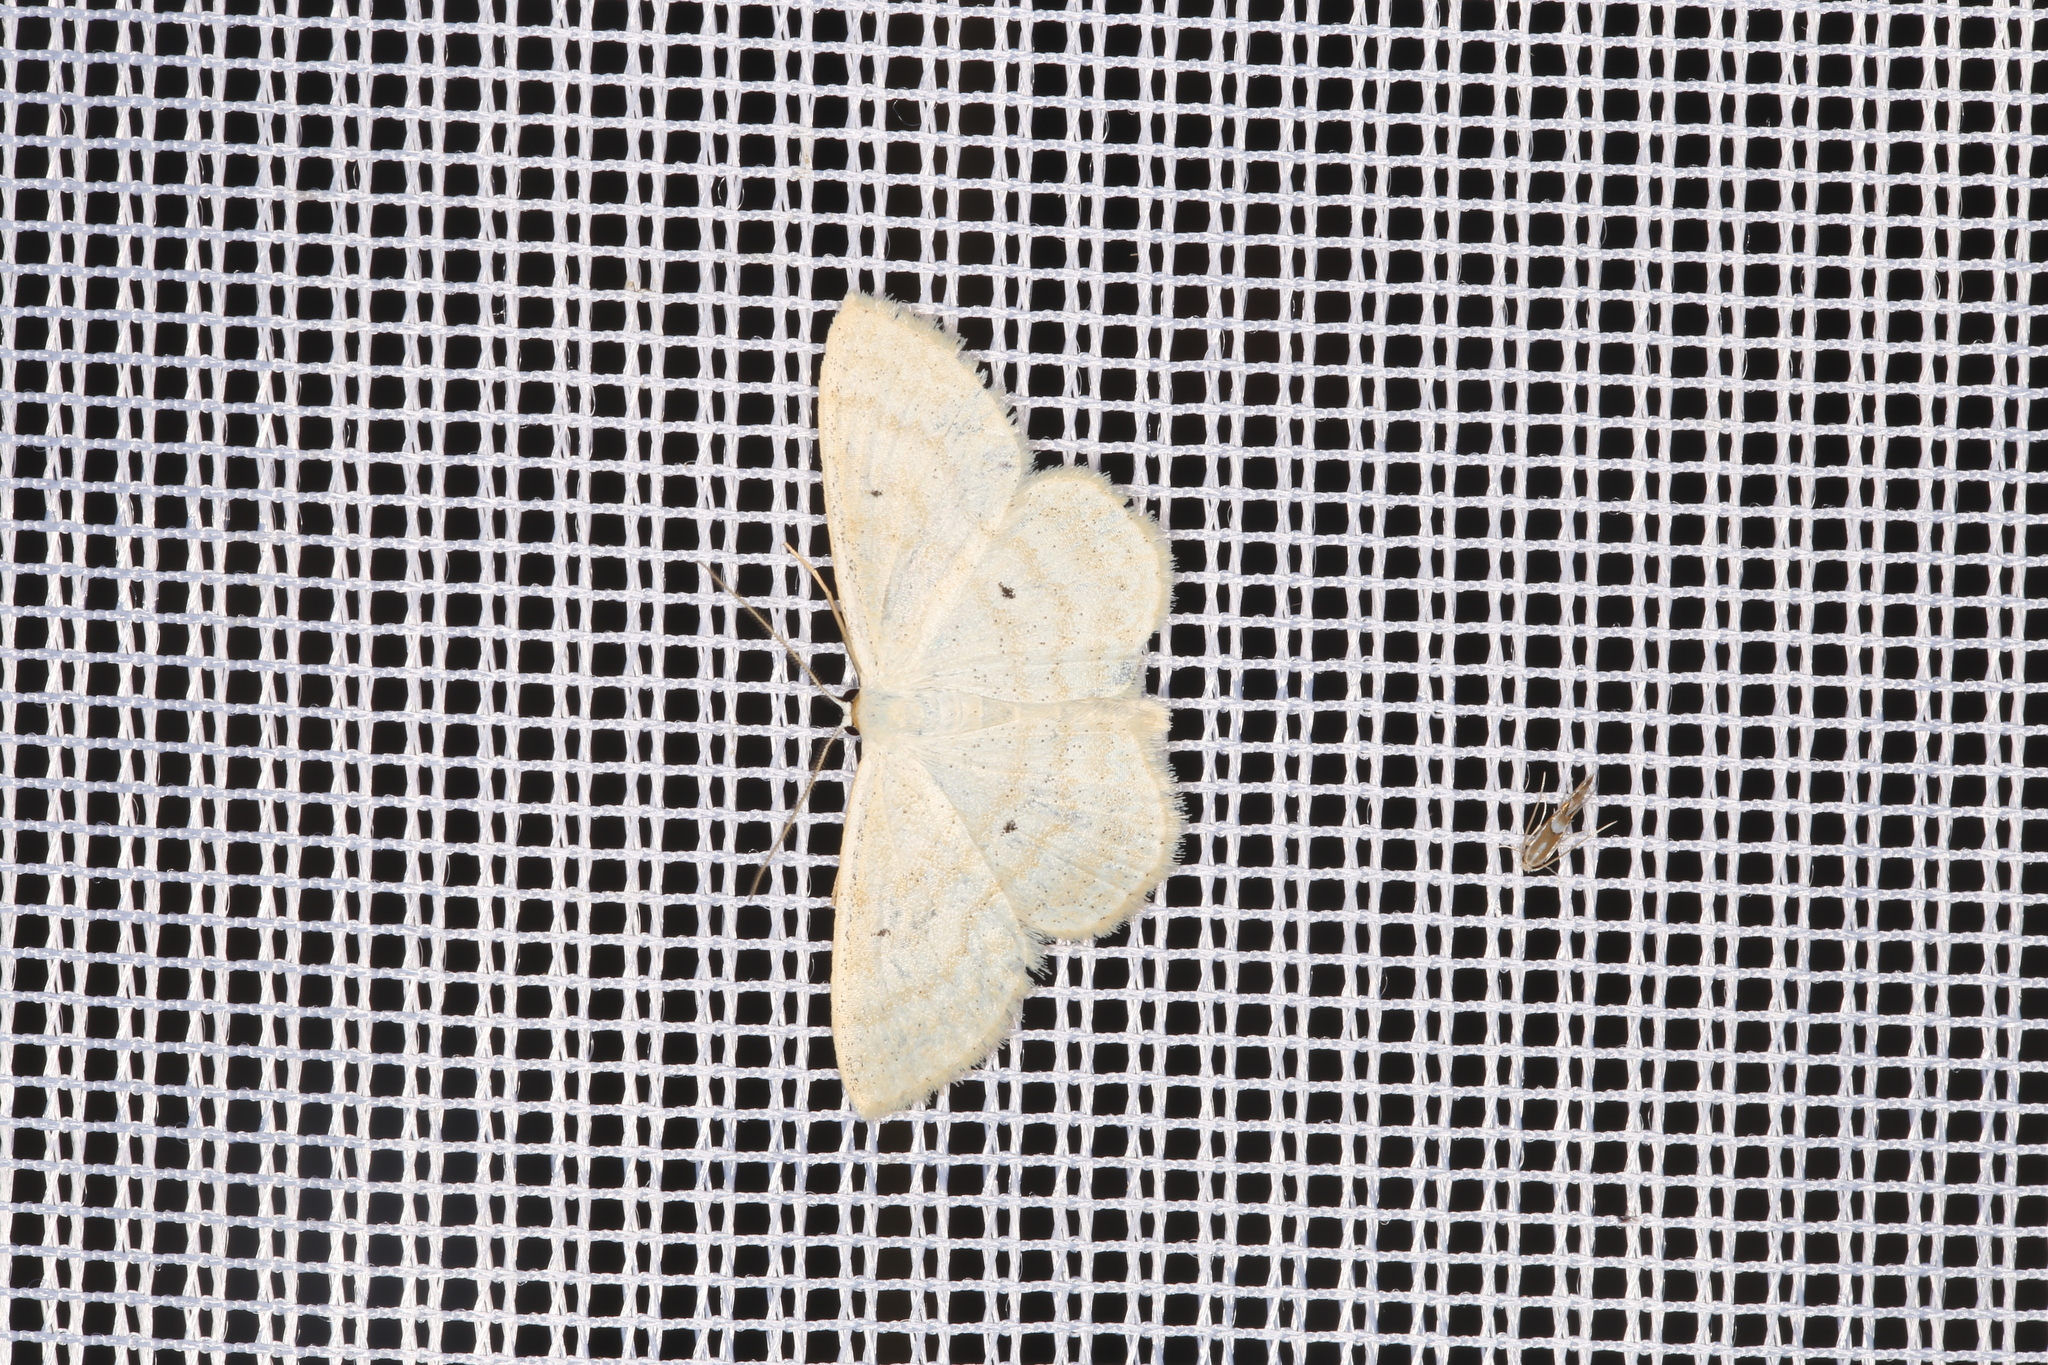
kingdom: Animalia
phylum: Arthropoda
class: Insecta
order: Lepidoptera
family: Geometridae
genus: Scopula
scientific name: Scopula immutata
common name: Lesser cream wave
